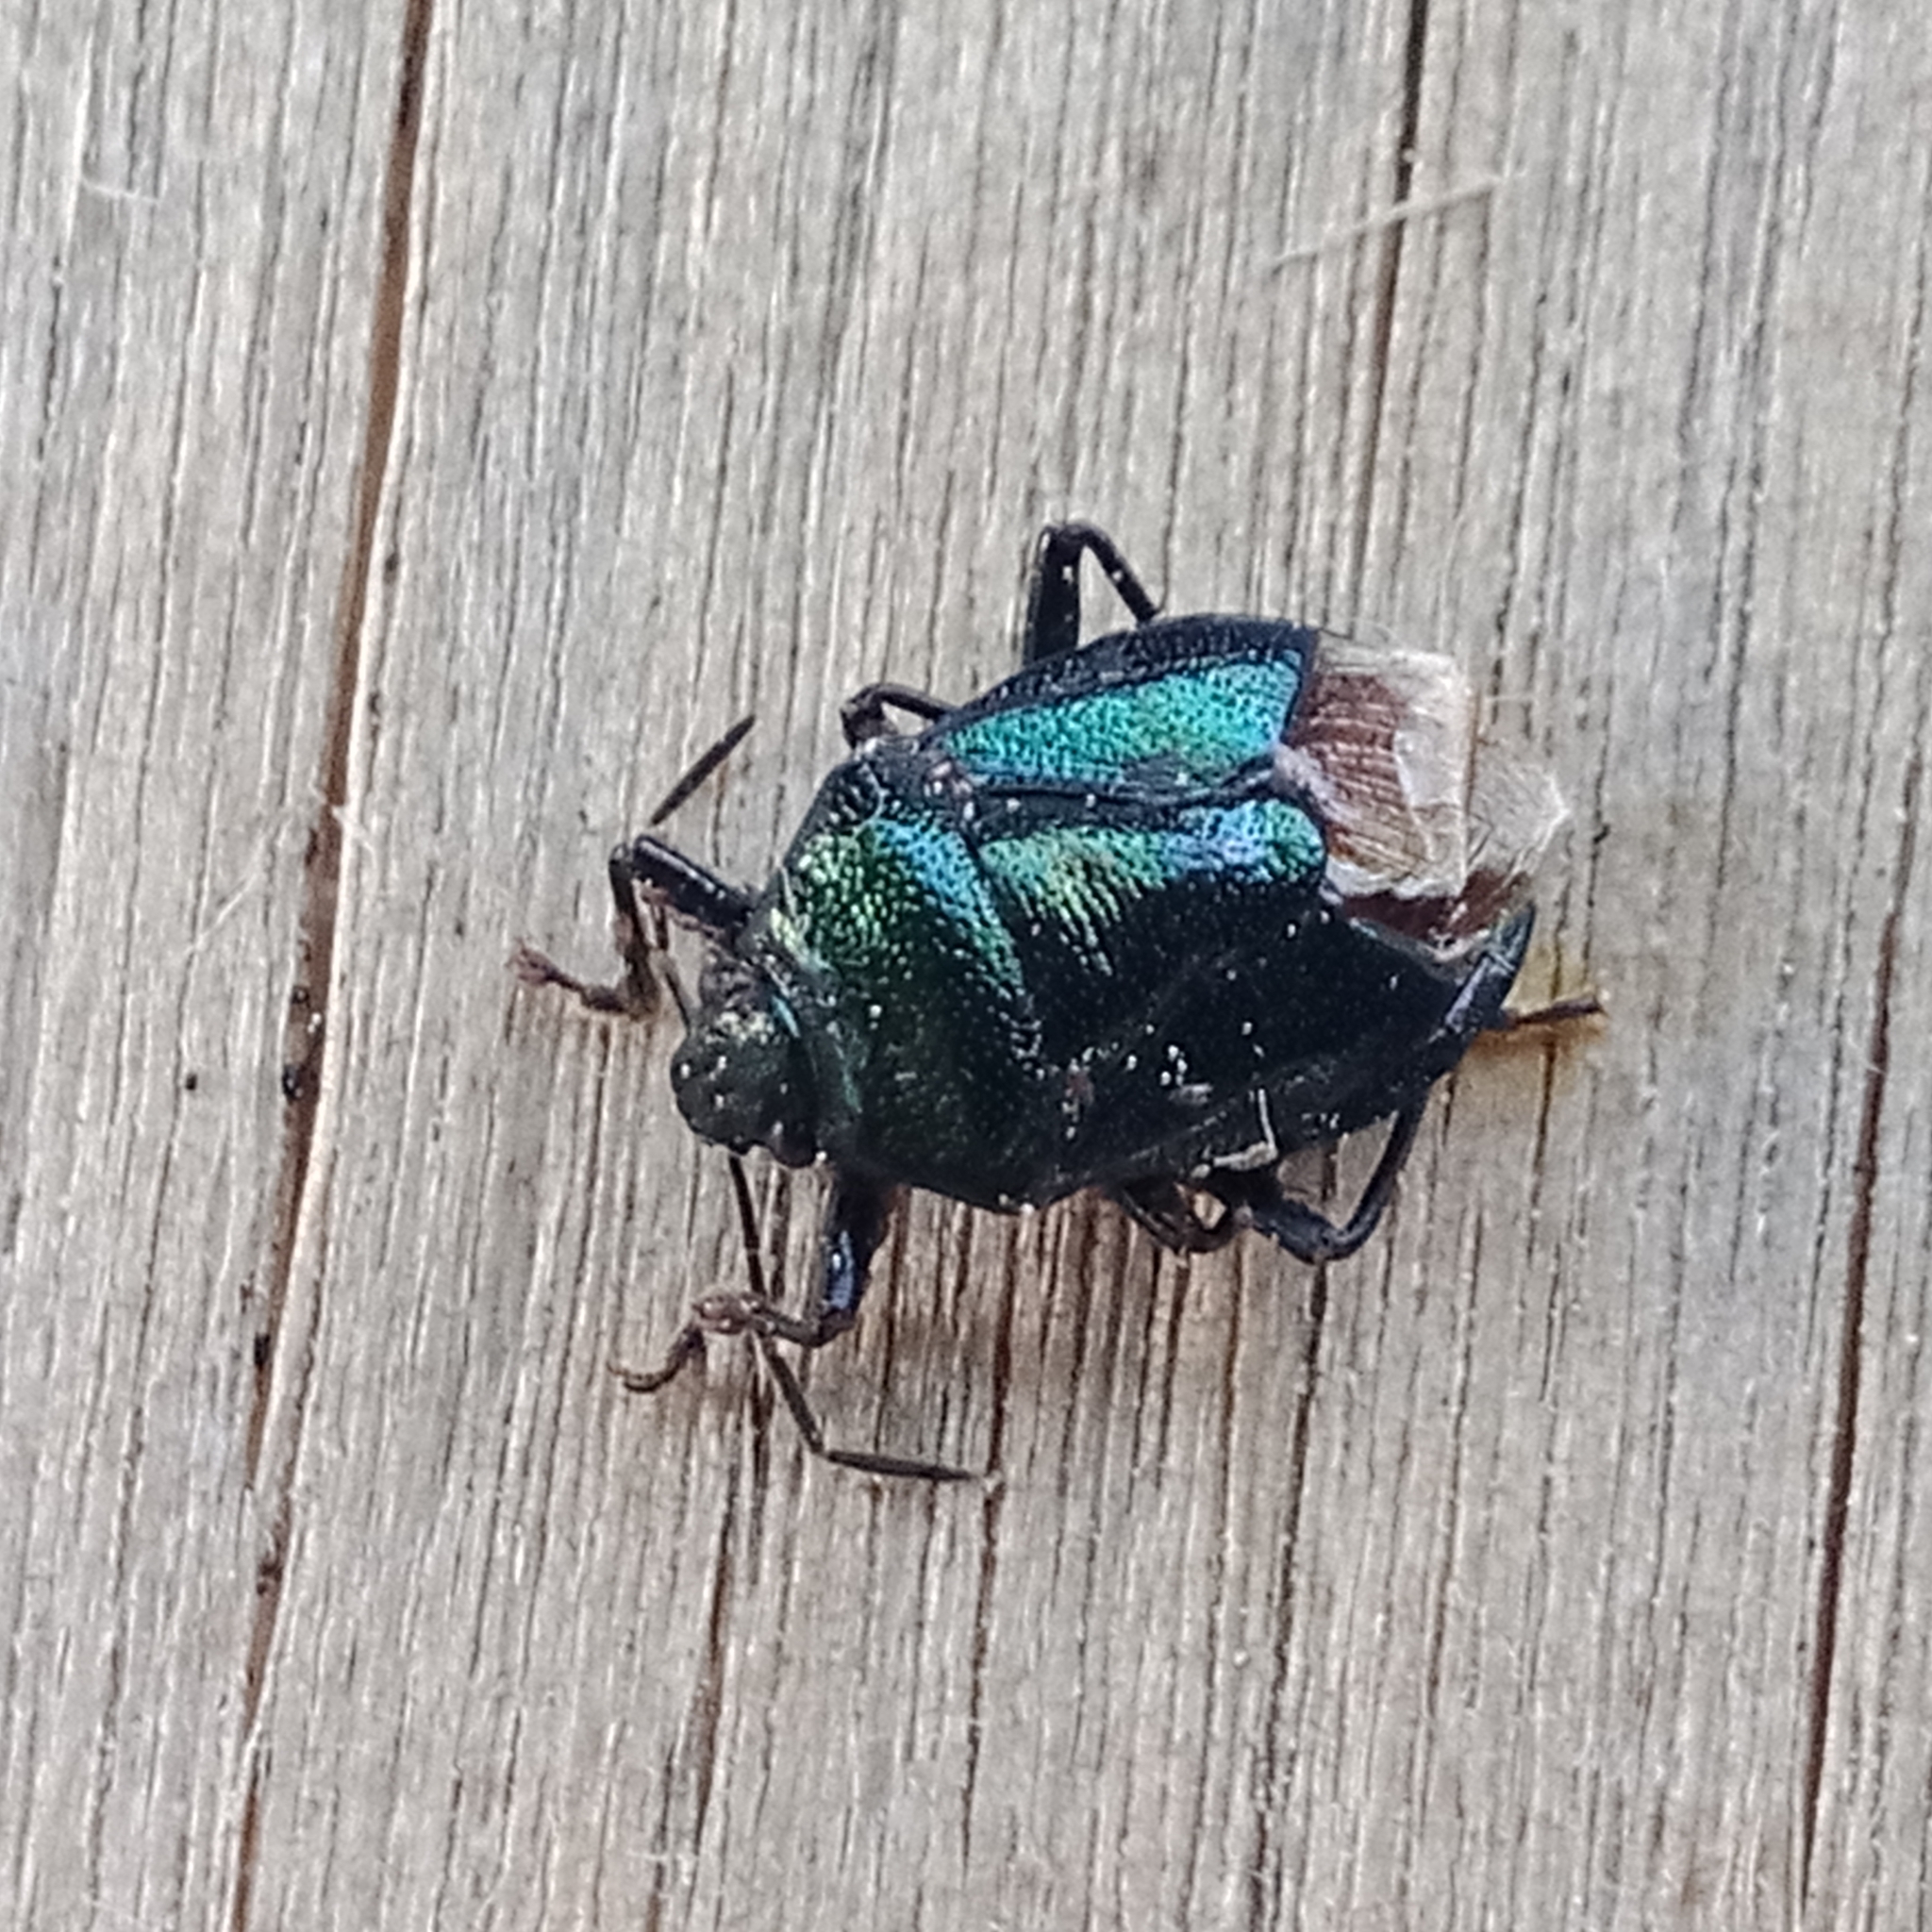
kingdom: Animalia
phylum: Arthropoda
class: Insecta
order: Hemiptera
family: Pentatomidae
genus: Zicrona
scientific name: Zicrona caerulea
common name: Blue shieldbug
